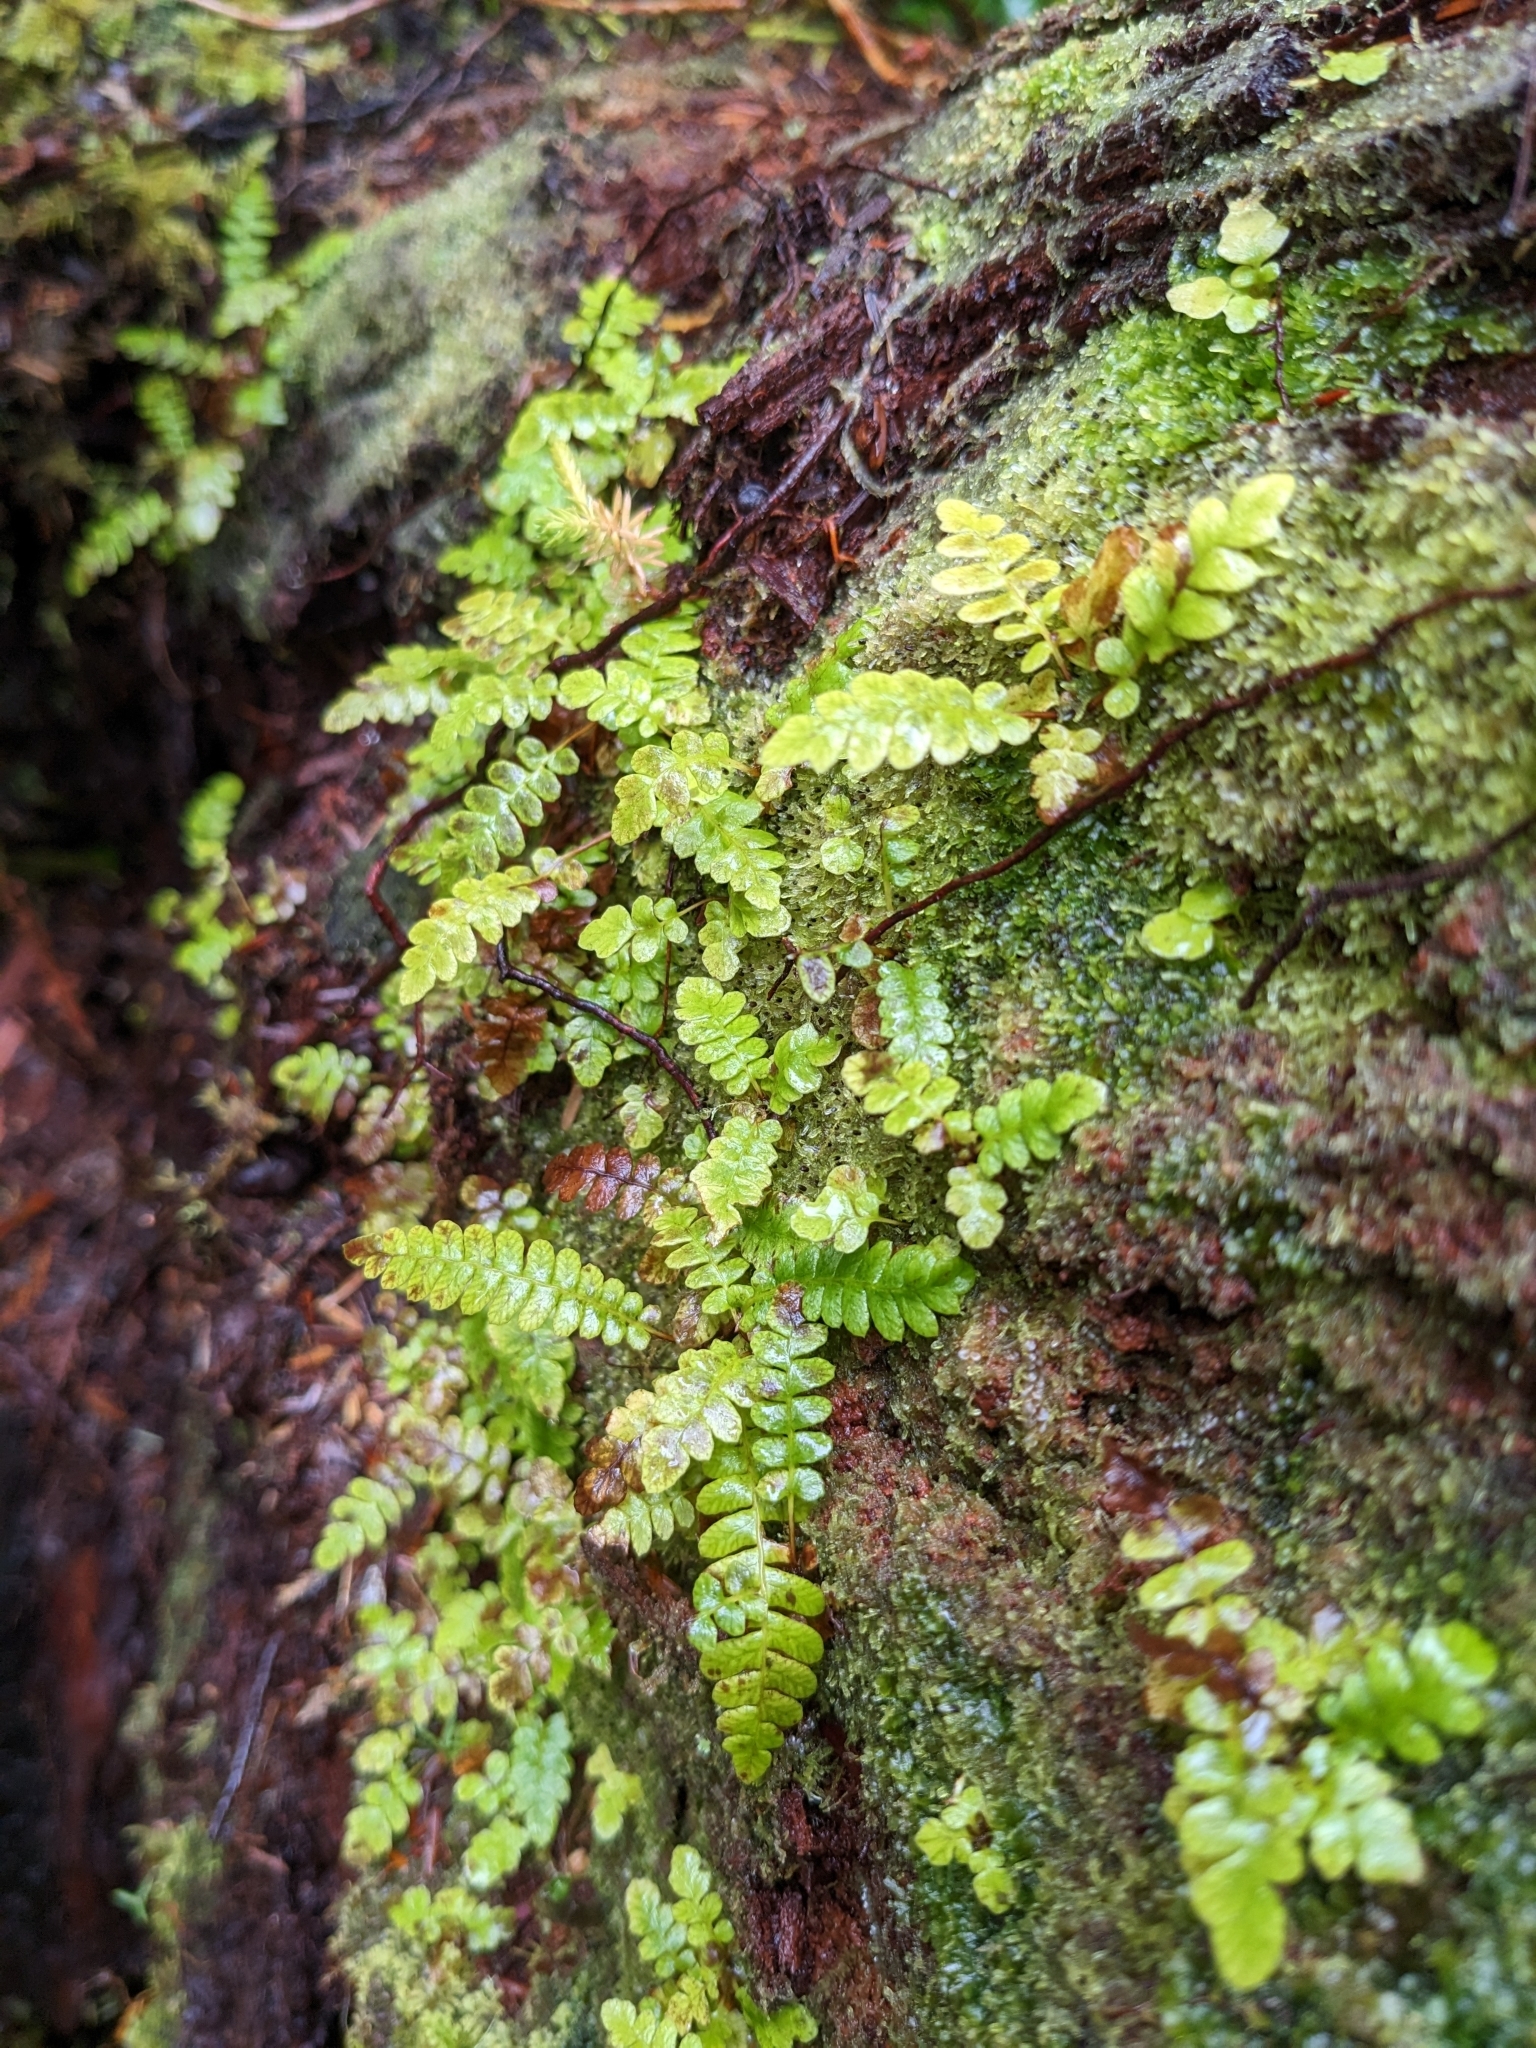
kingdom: Plantae
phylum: Tracheophyta
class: Polypodiopsida
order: Polypodiales
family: Blechnaceae
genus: Struthiopteris
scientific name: Struthiopteris spicant
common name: Deer fern
